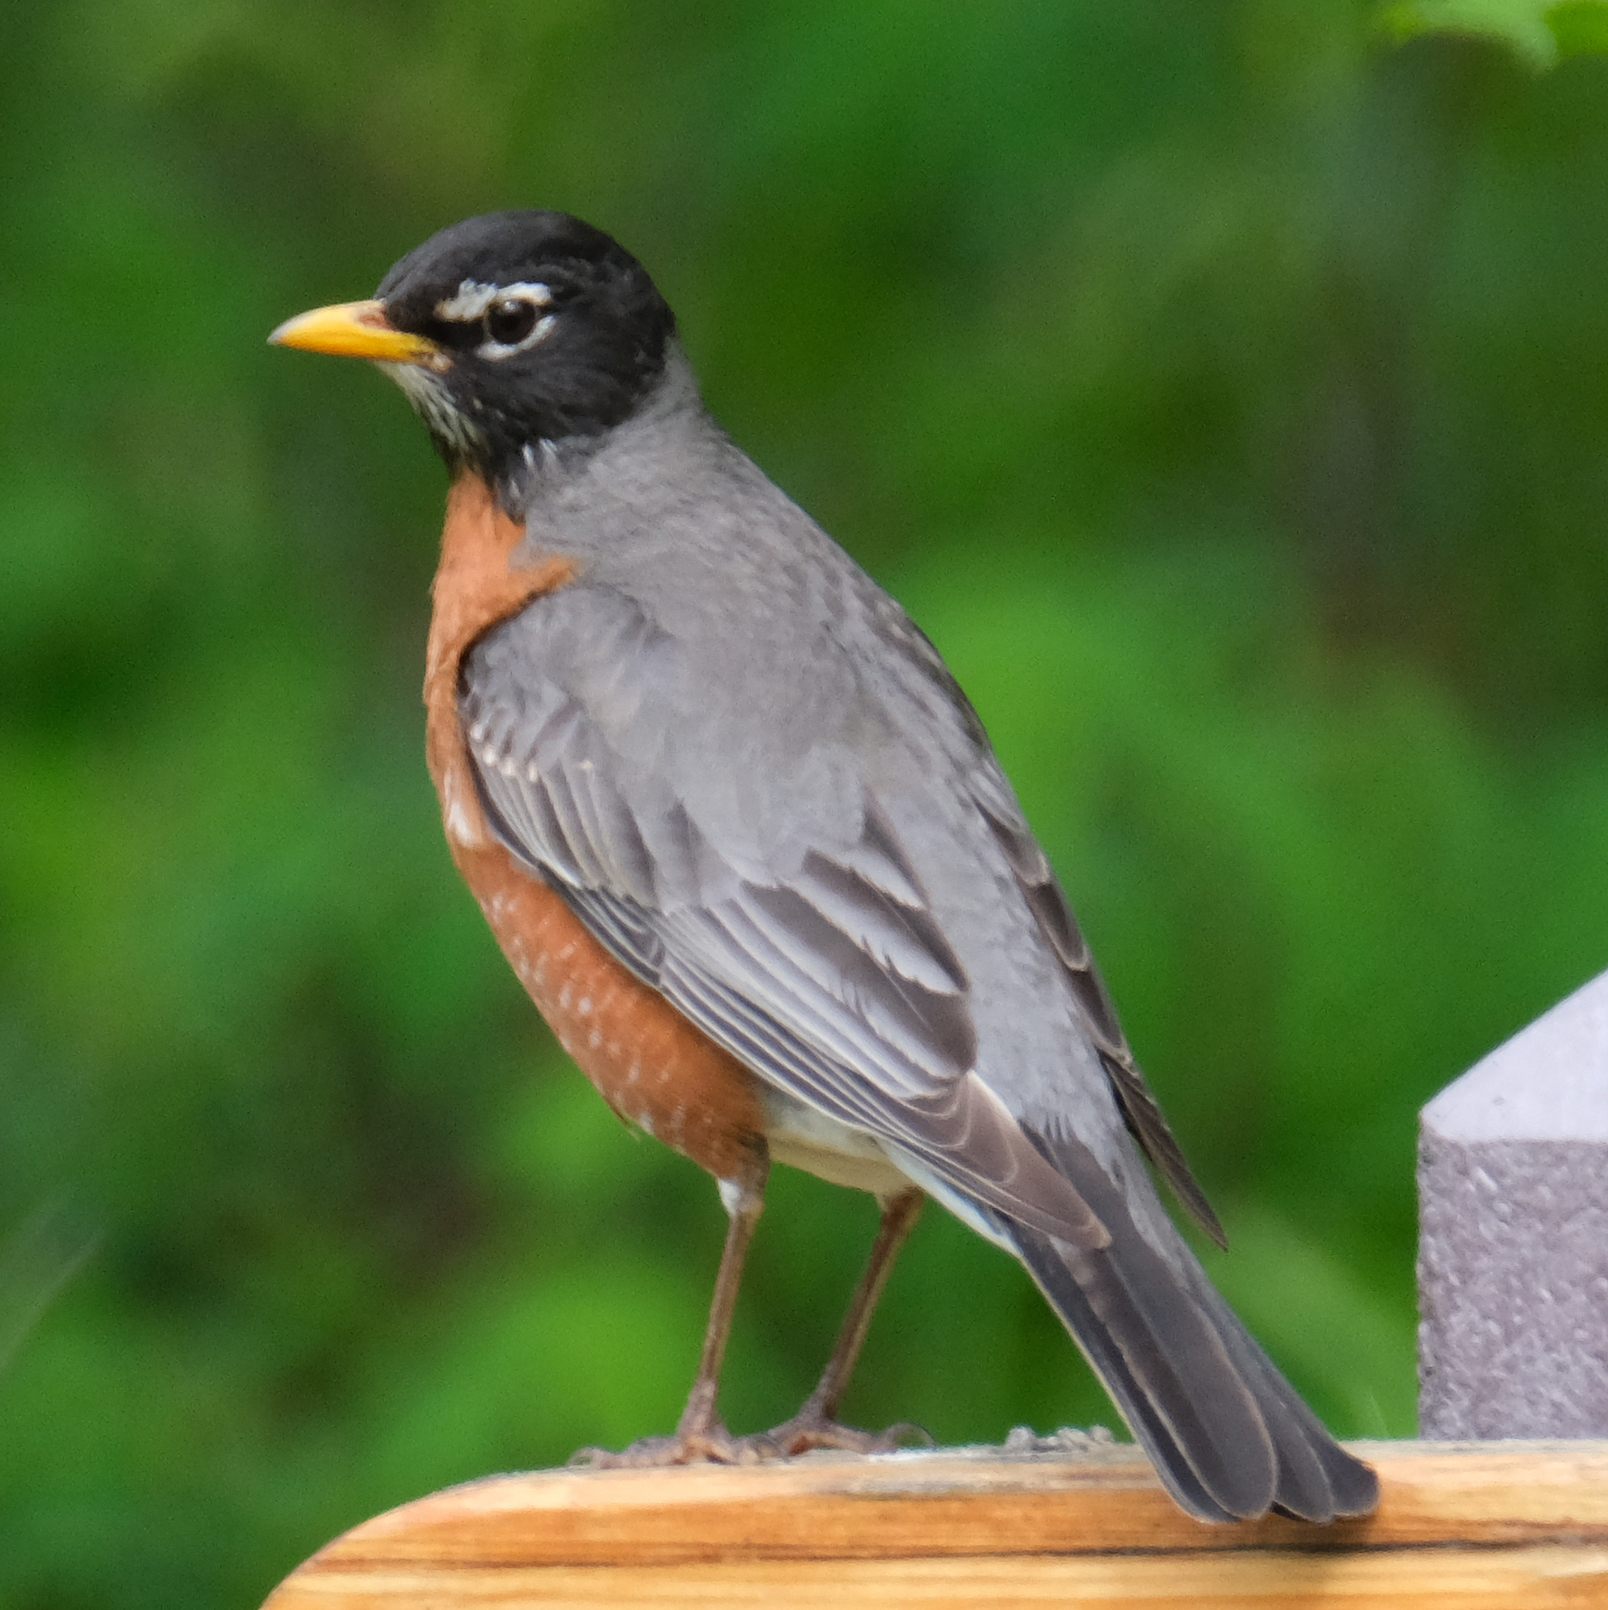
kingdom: Animalia
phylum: Chordata
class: Aves
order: Passeriformes
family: Turdidae
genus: Turdus
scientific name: Turdus migratorius
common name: American robin
